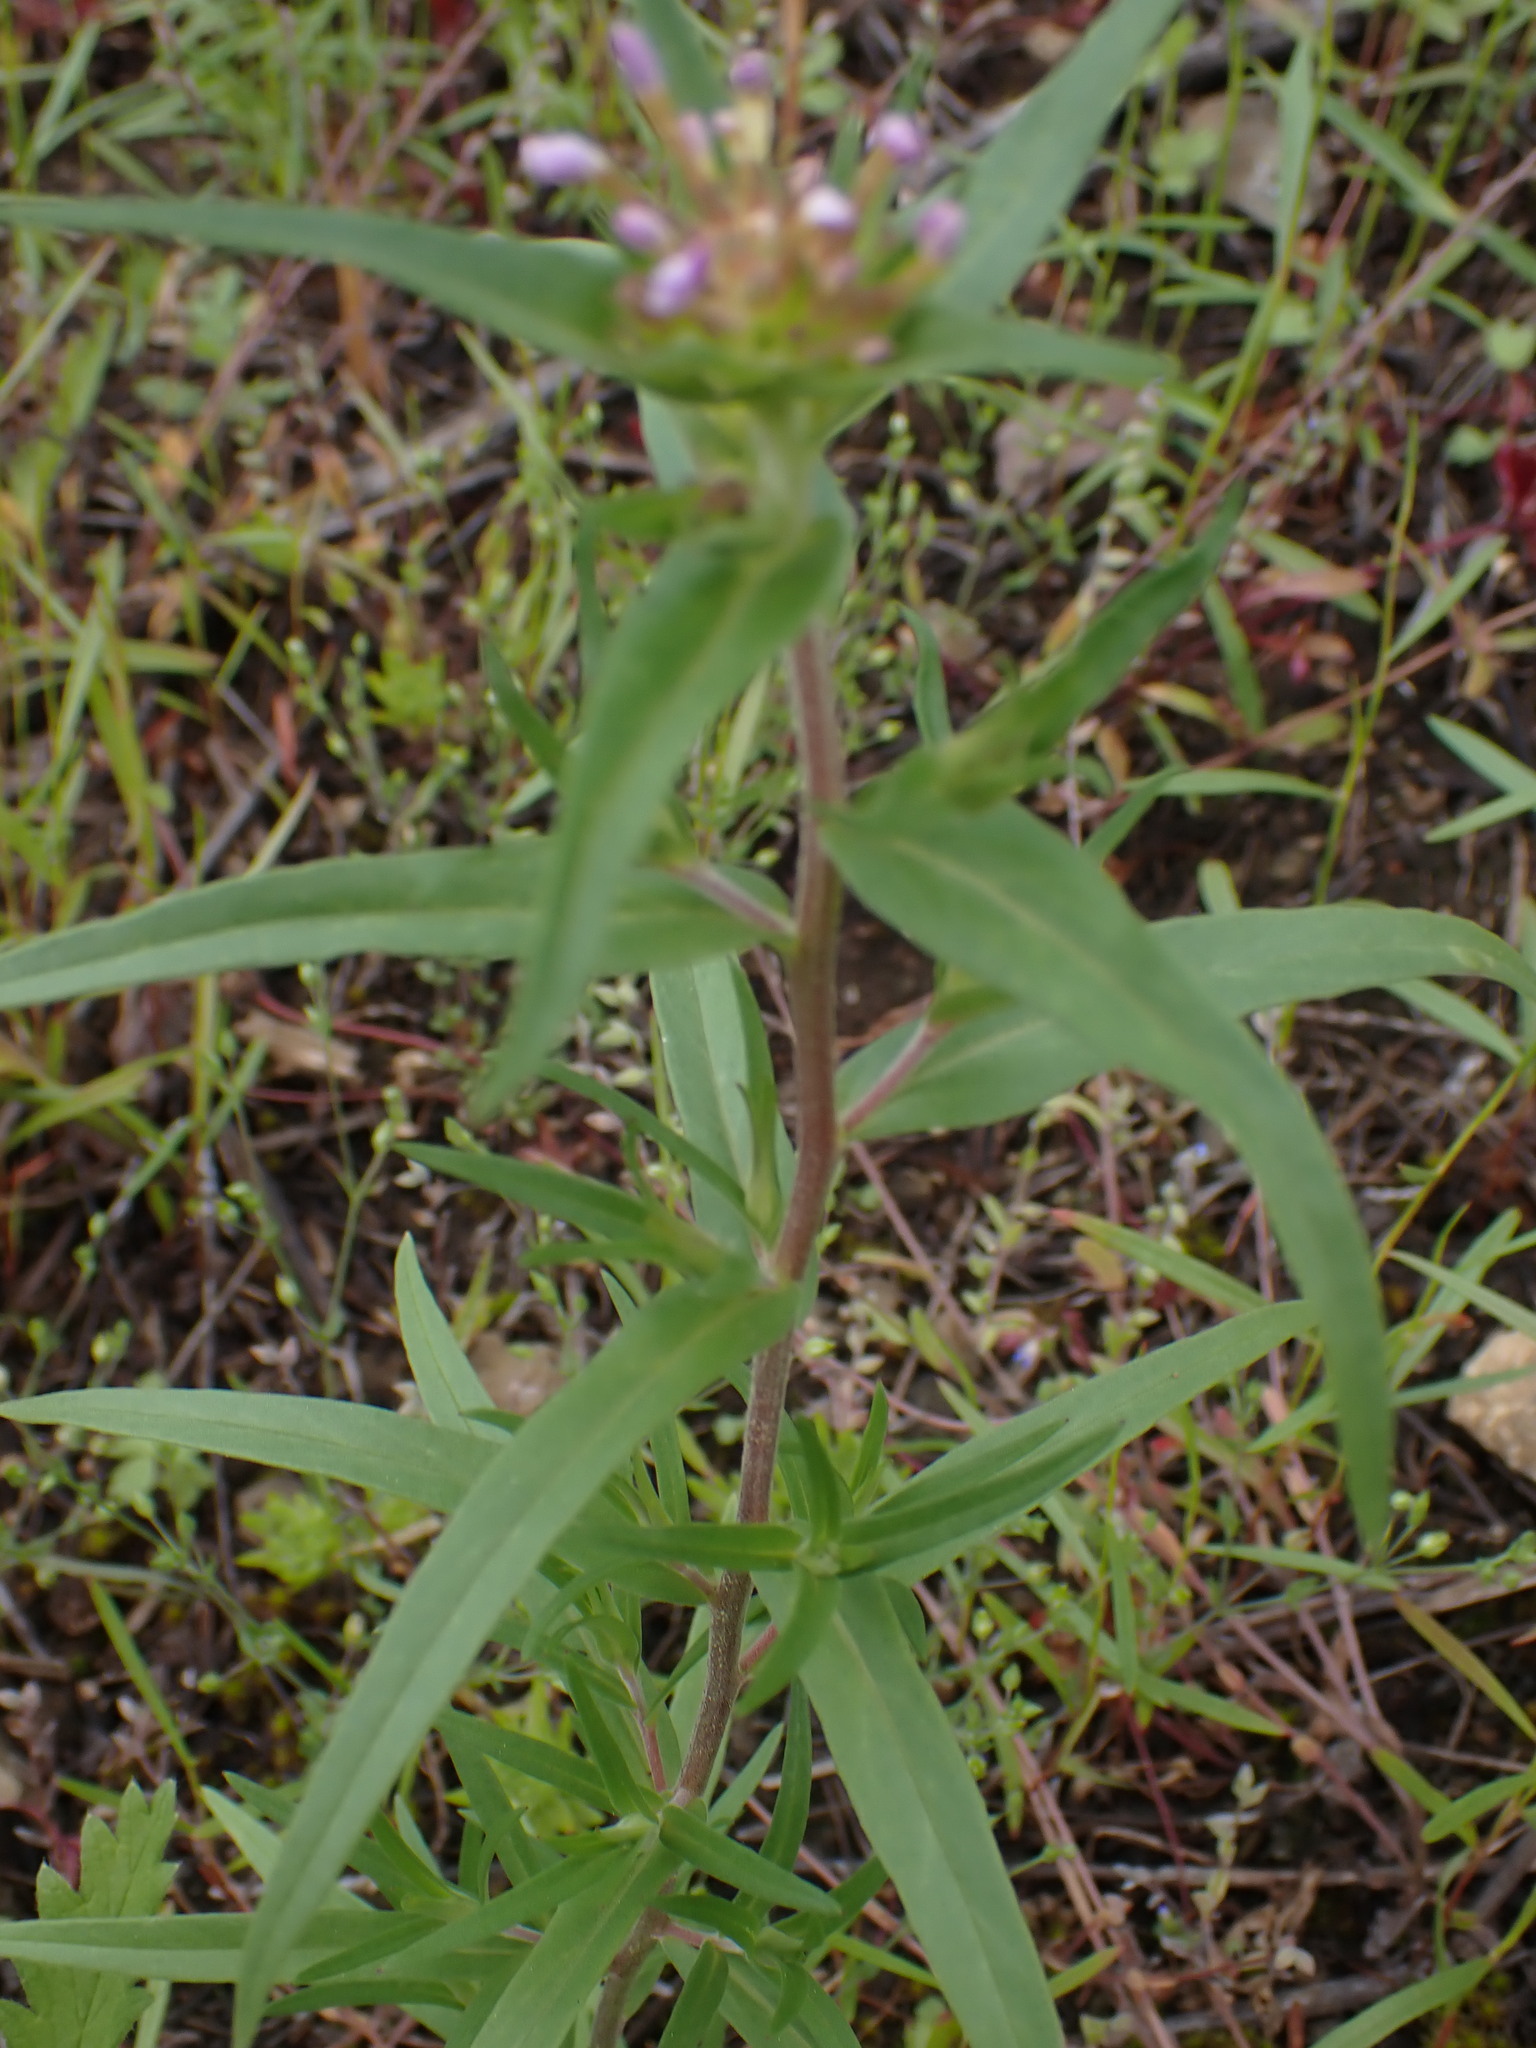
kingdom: Plantae
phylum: Tracheophyta
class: Magnoliopsida
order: Ericales
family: Polemoniaceae
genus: Collomia
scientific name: Collomia linearis
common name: Tiny trumpet
